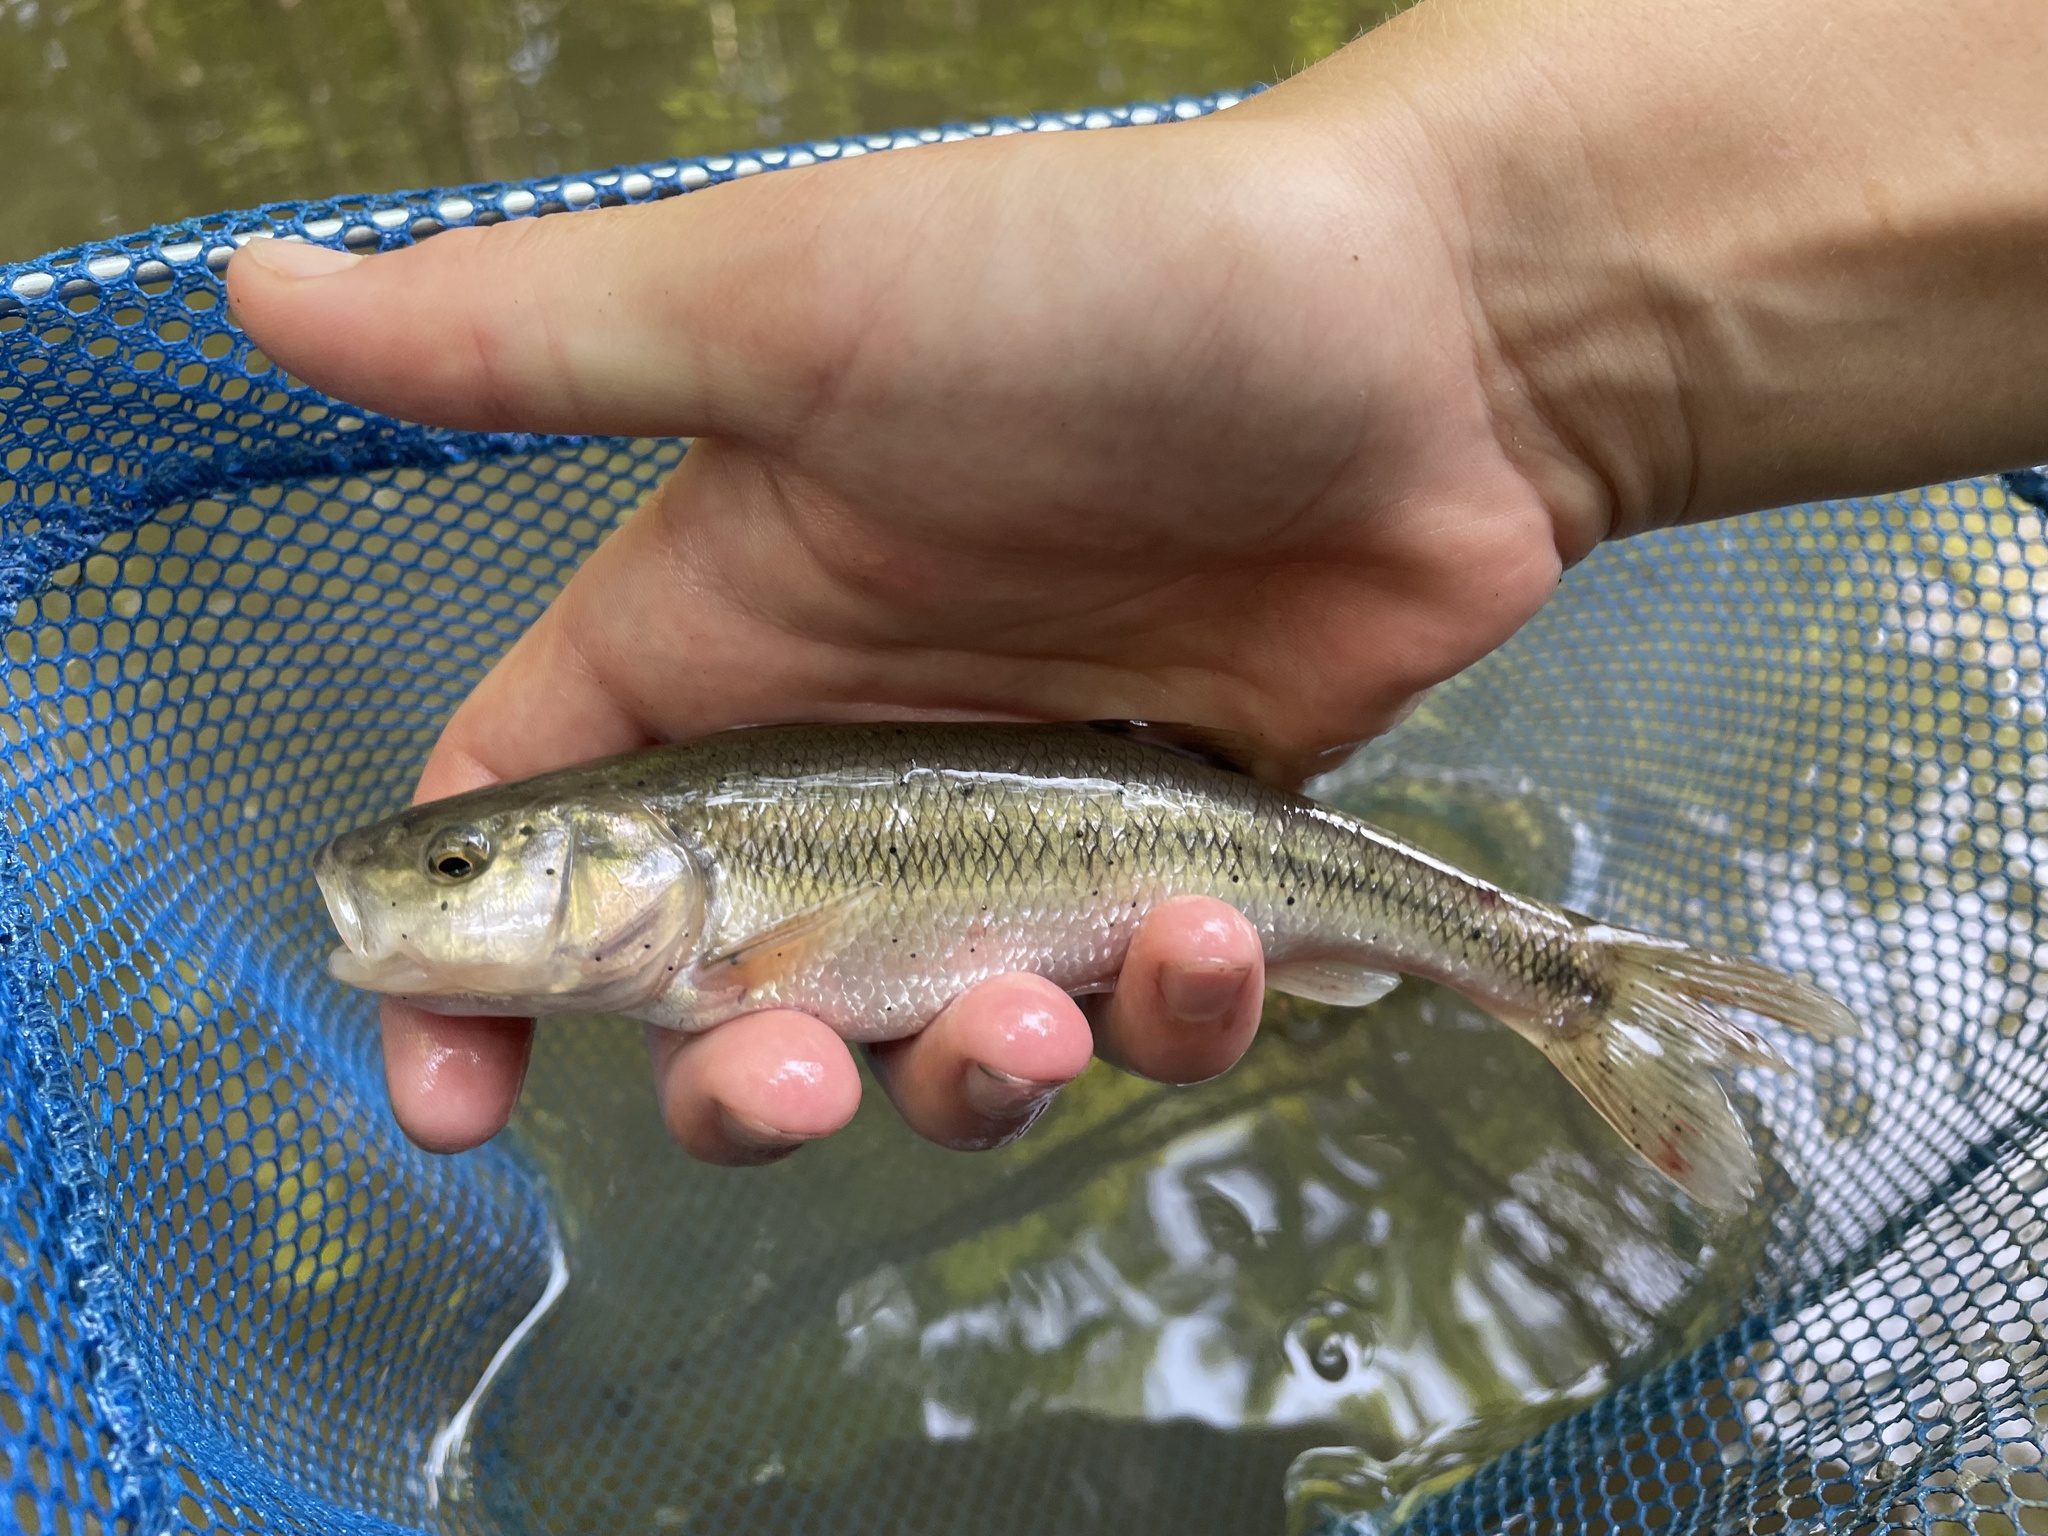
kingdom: Animalia
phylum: Chordata
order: Cypriniformes
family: Cyprinidae
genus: Semotilus
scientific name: Semotilus atromaculatus
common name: Creek chub
